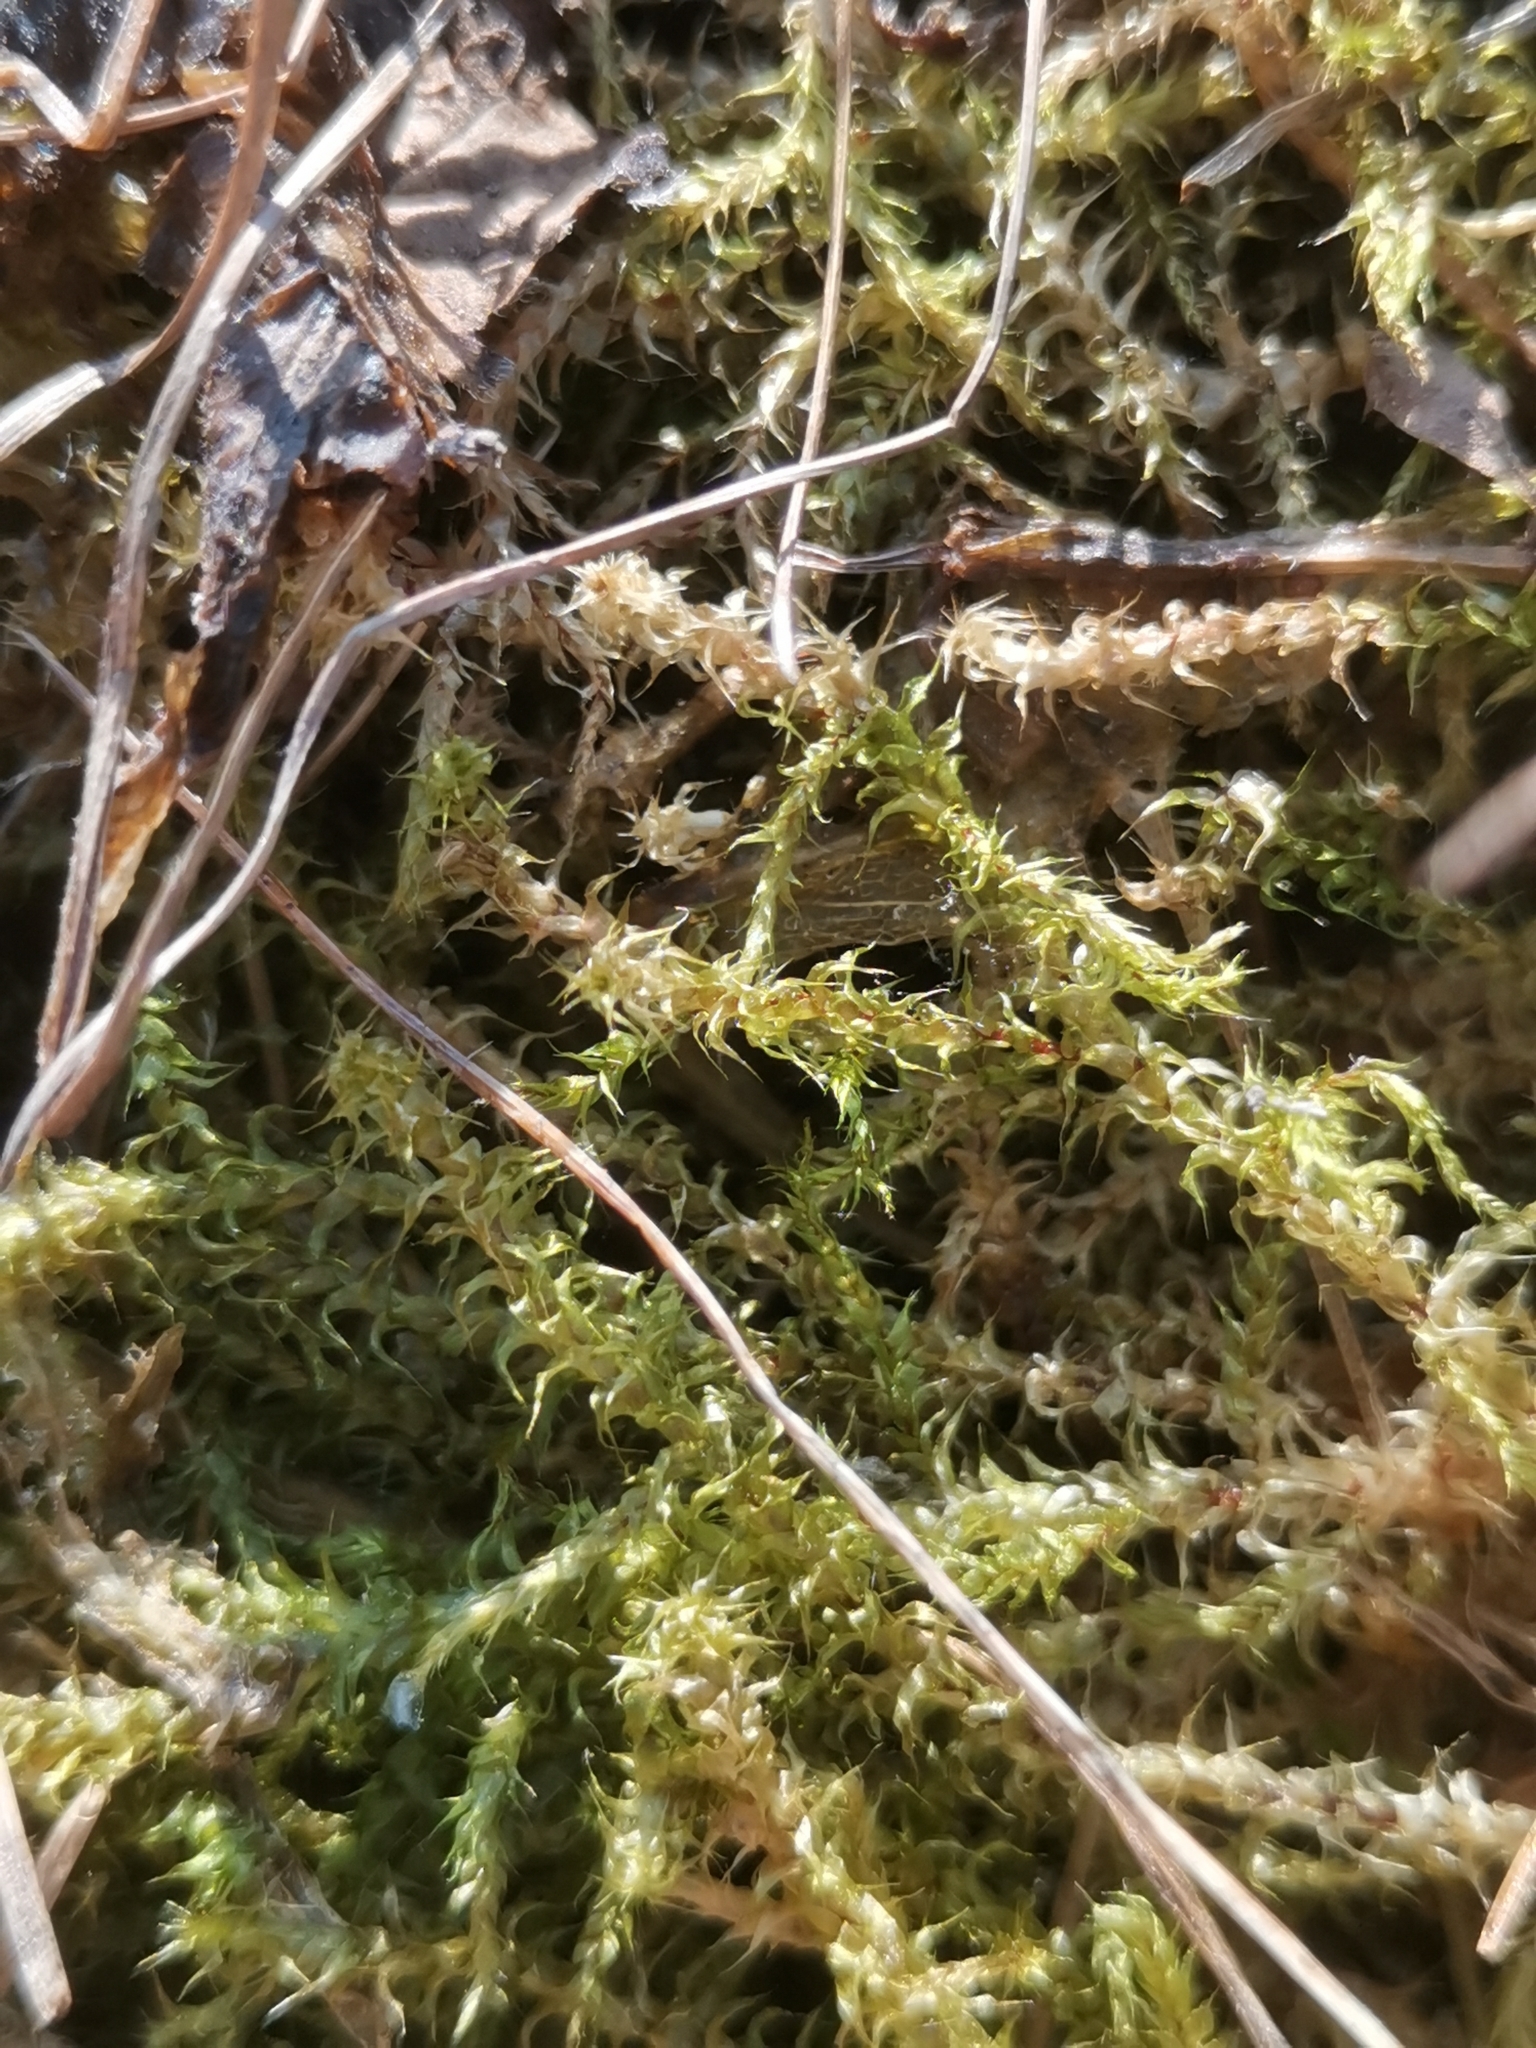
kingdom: Plantae
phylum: Bryophyta
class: Bryopsida
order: Hypnales
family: Hylocomiaceae
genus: Rhytidiadelphus
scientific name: Rhytidiadelphus squarrosus
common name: Springy turf-moss
